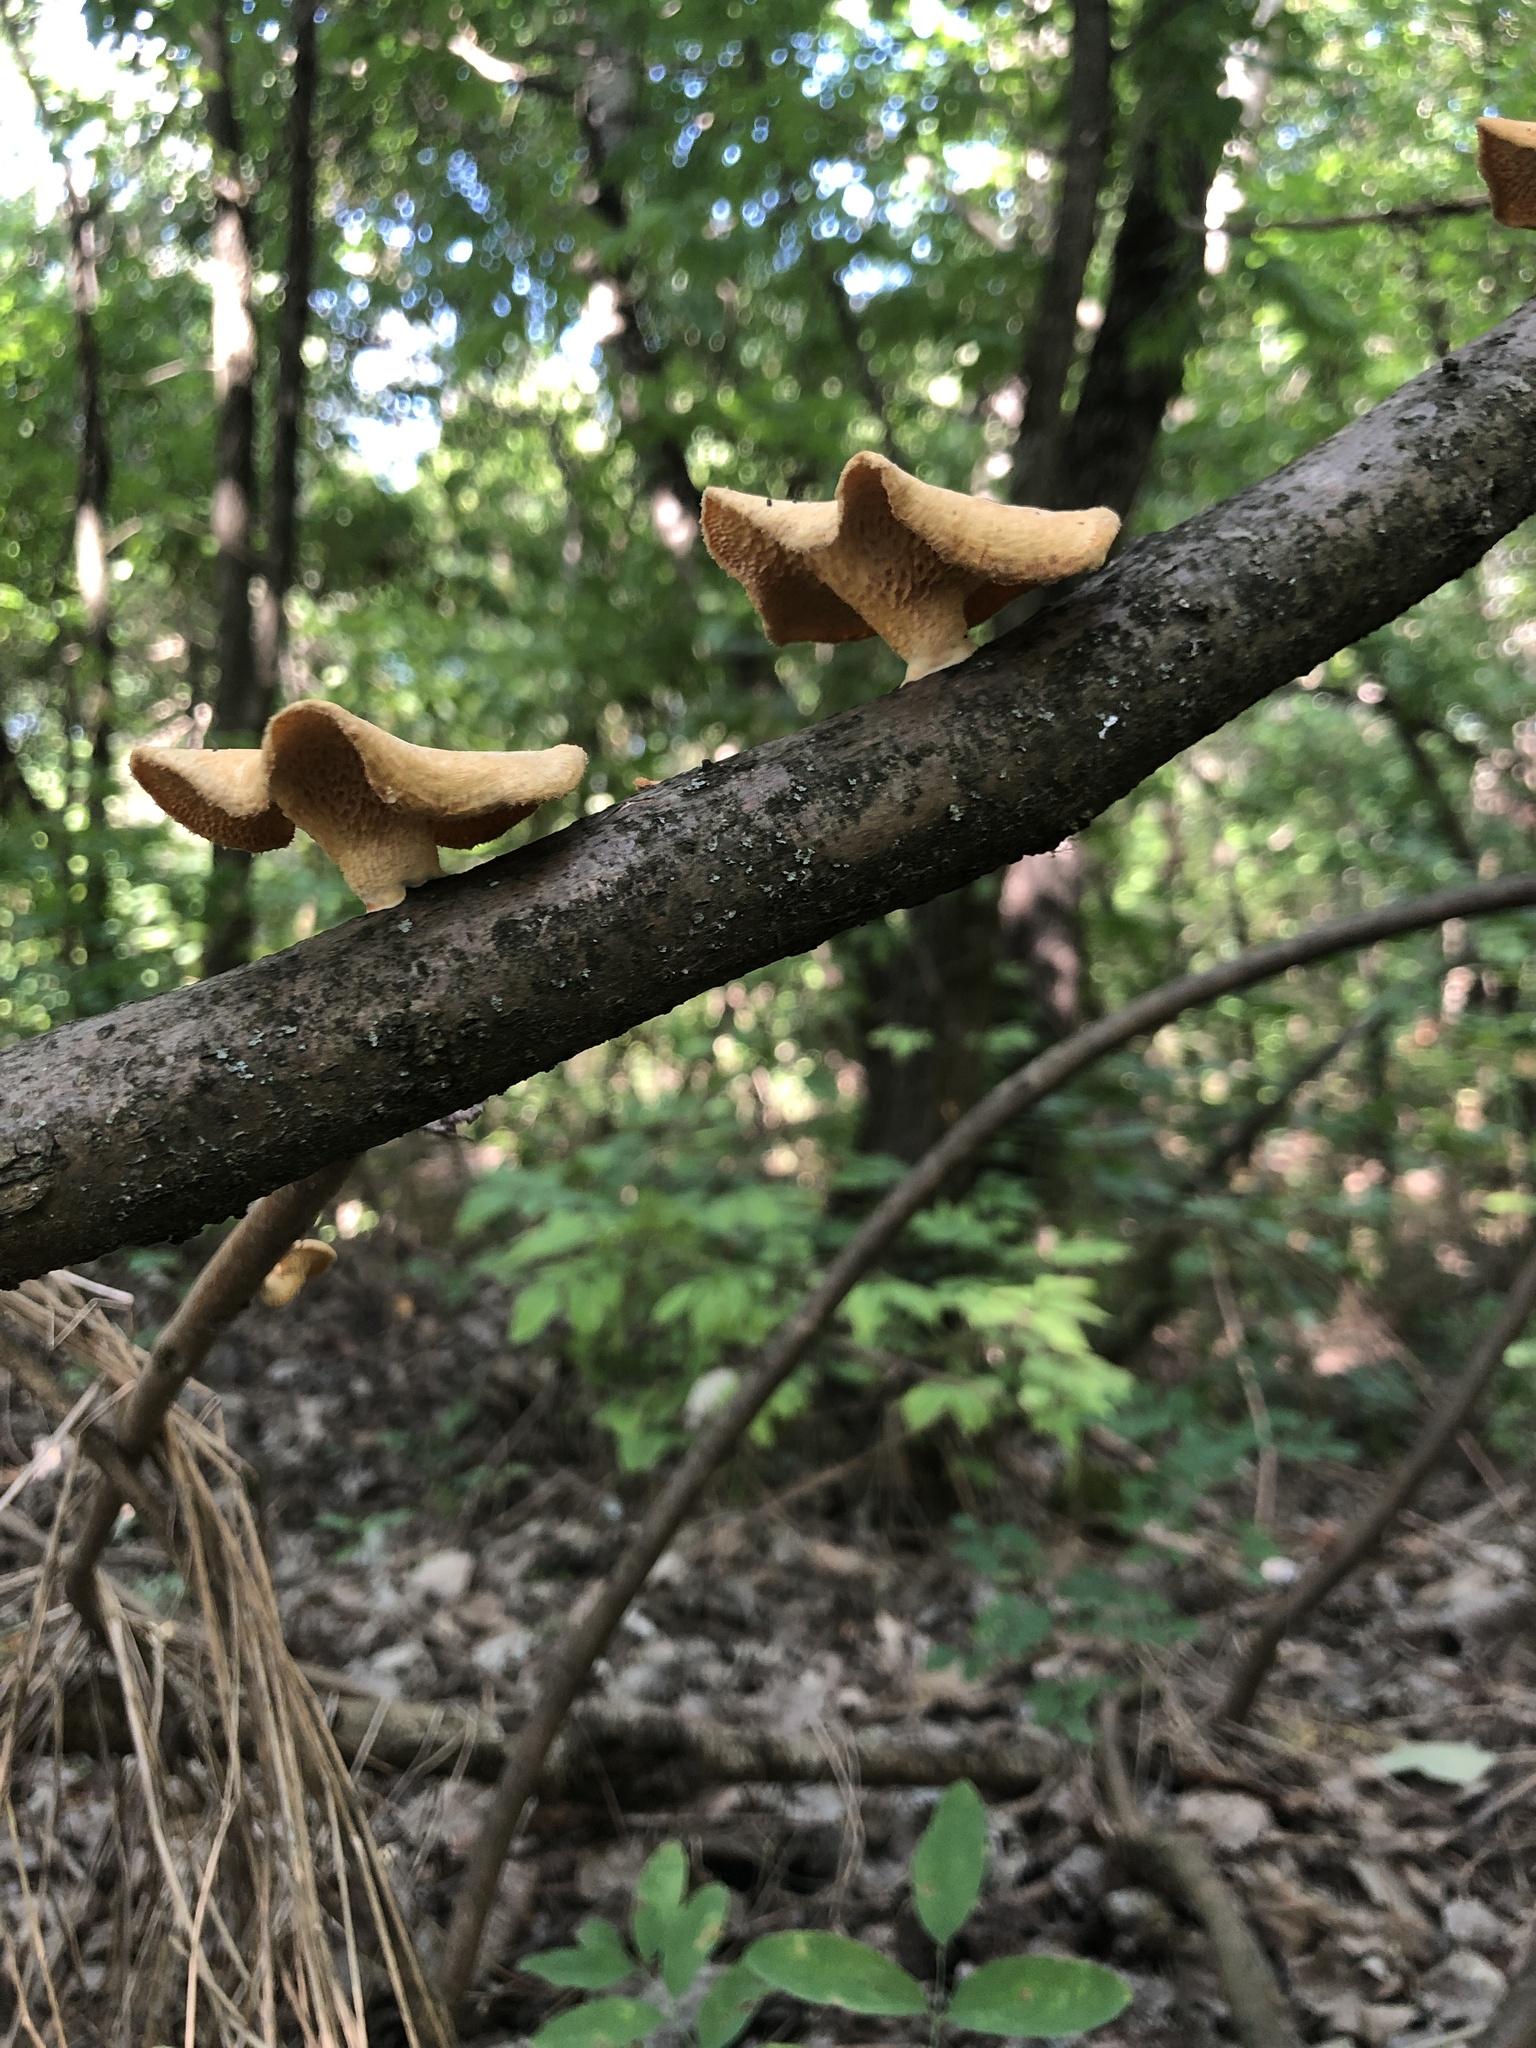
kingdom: Fungi
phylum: Basidiomycota
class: Agaricomycetes
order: Polyporales
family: Polyporaceae
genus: Neofavolus
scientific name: Neofavolus alveolaris
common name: Hexagonal-pored polypore
